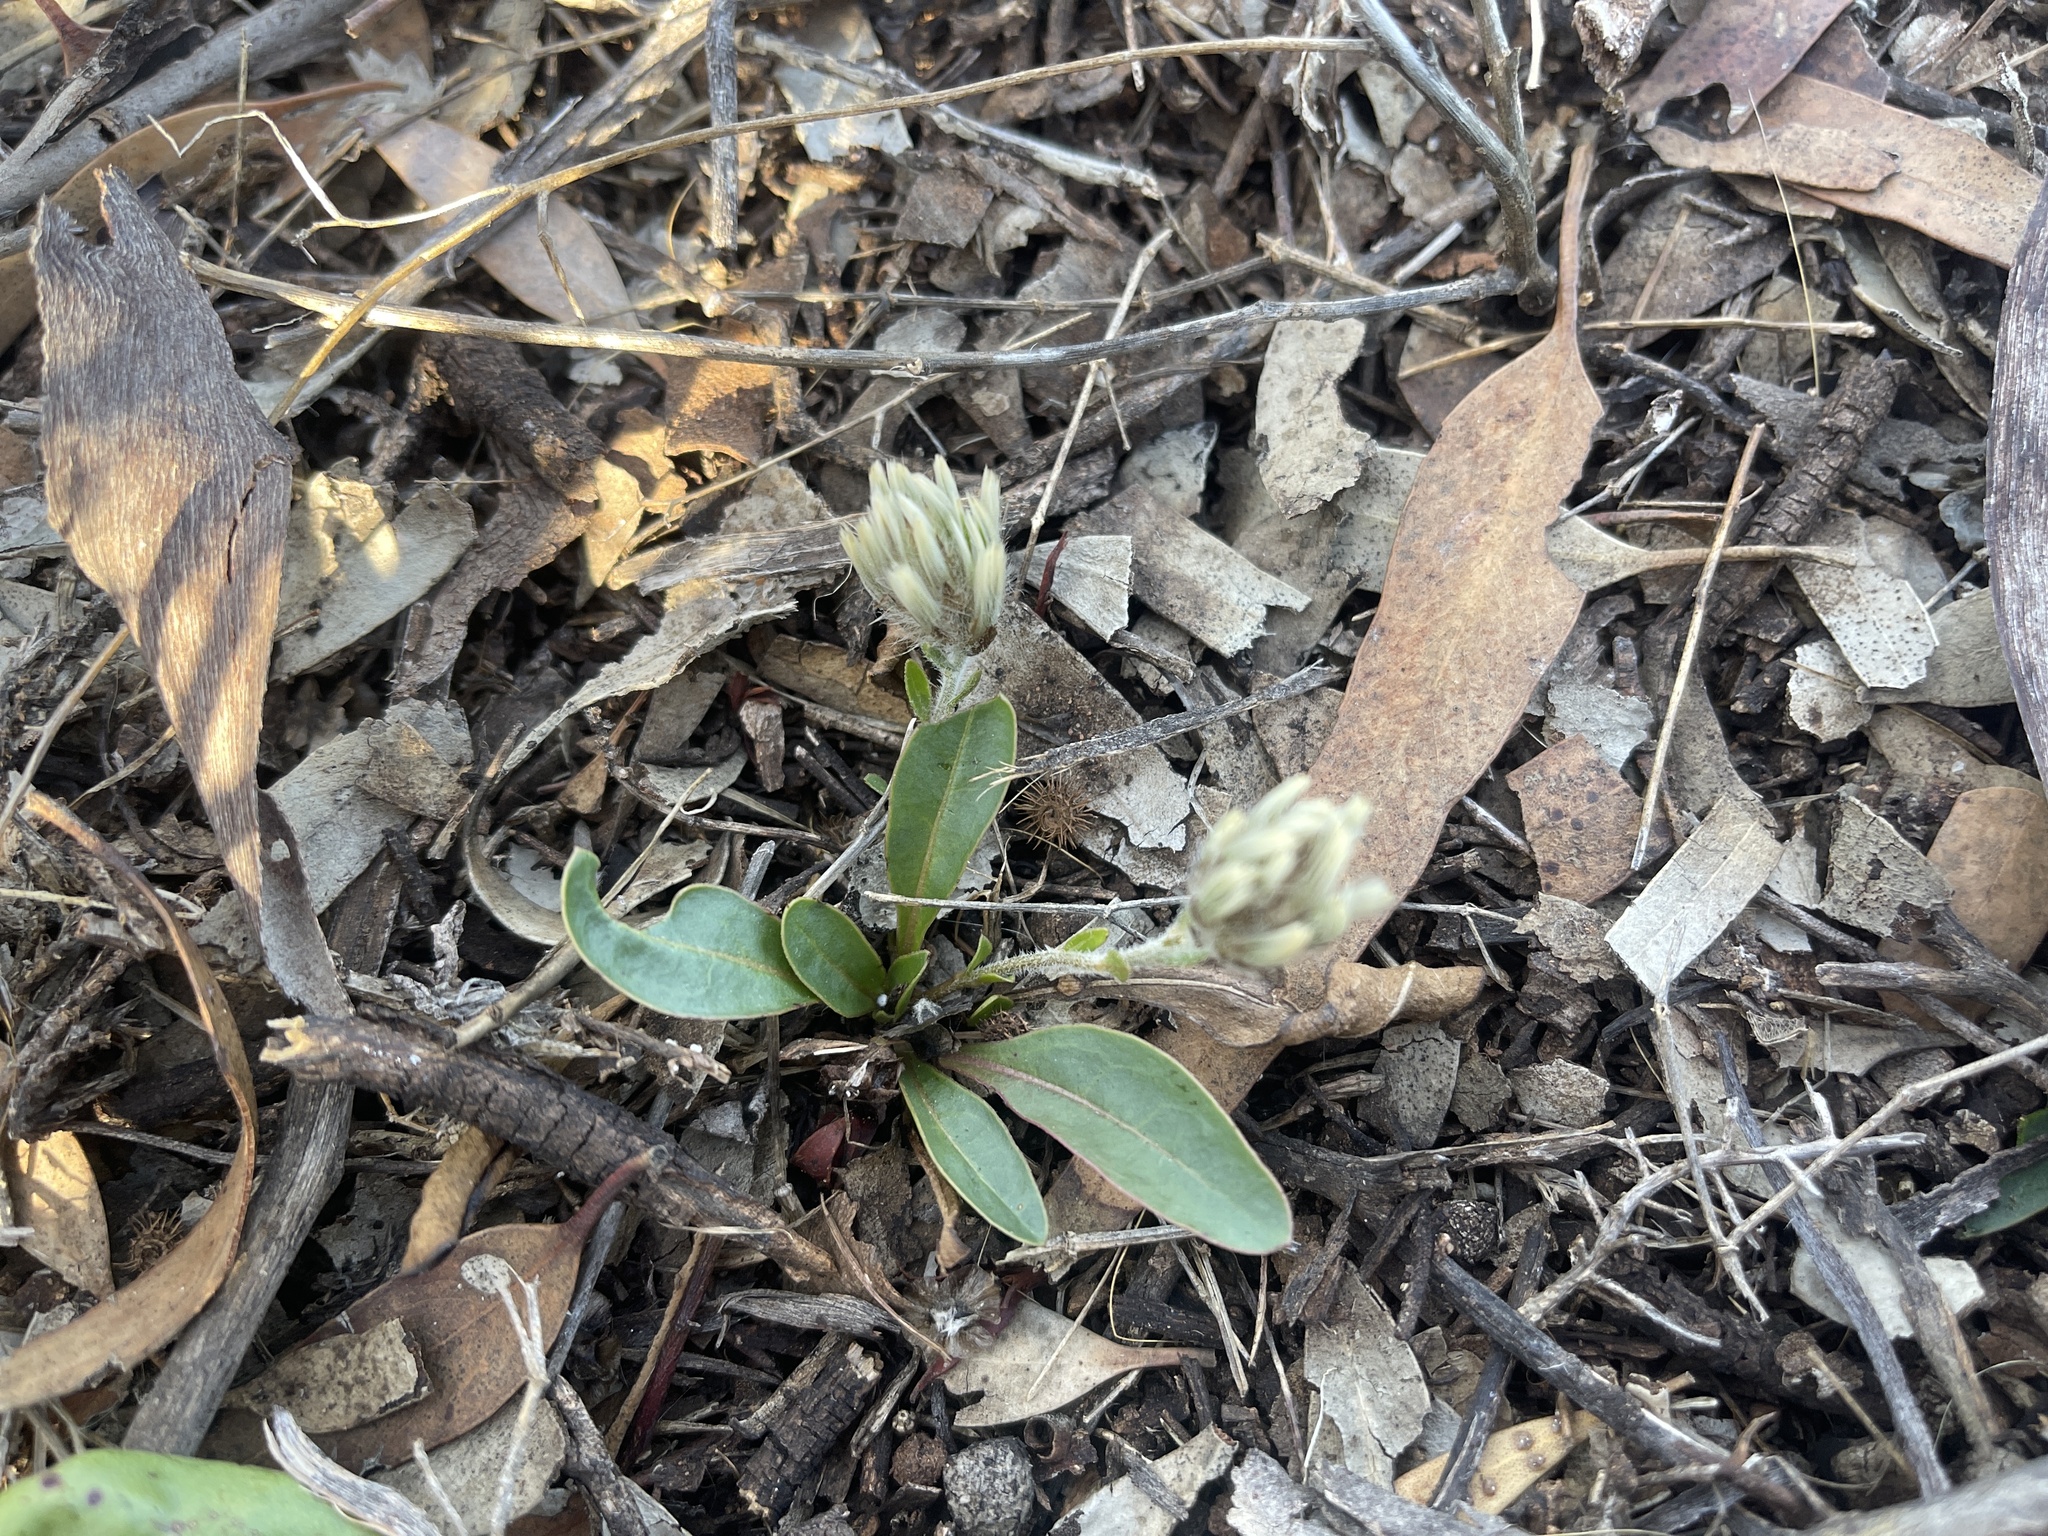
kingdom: Plantae
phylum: Tracheophyta
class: Magnoliopsida
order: Caryophyllales
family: Amaranthaceae
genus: Ptilotus
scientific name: Ptilotus seminudus
